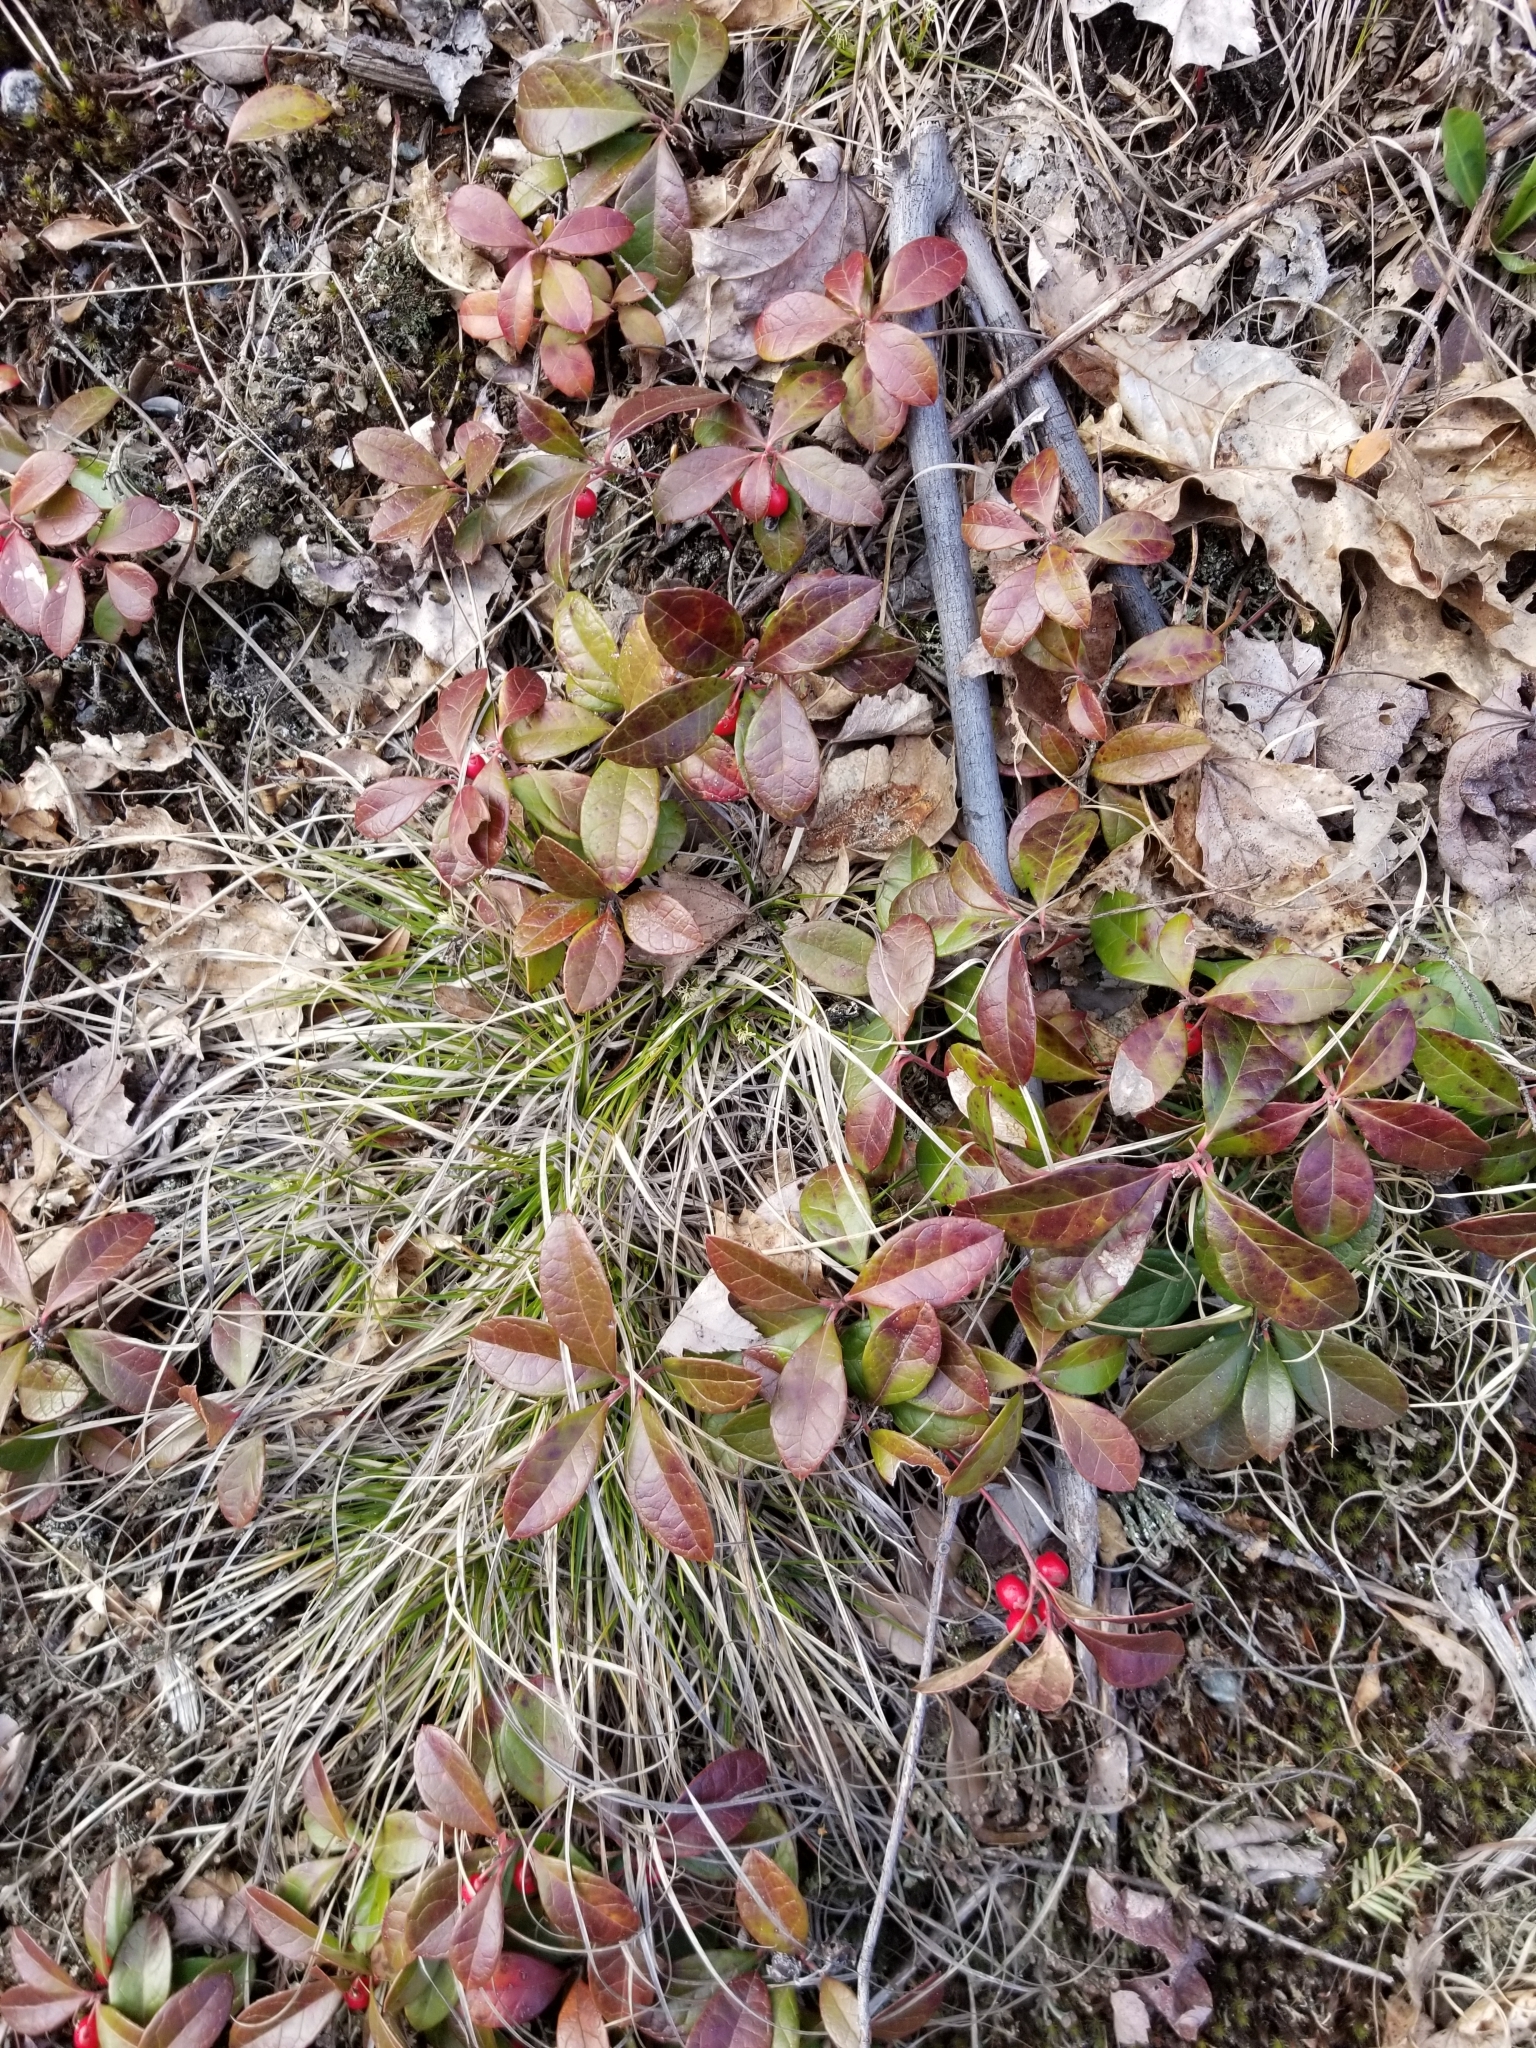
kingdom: Plantae
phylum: Tracheophyta
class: Magnoliopsida
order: Ericales
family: Ericaceae
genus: Gaultheria
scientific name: Gaultheria procumbens
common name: Checkerberry
